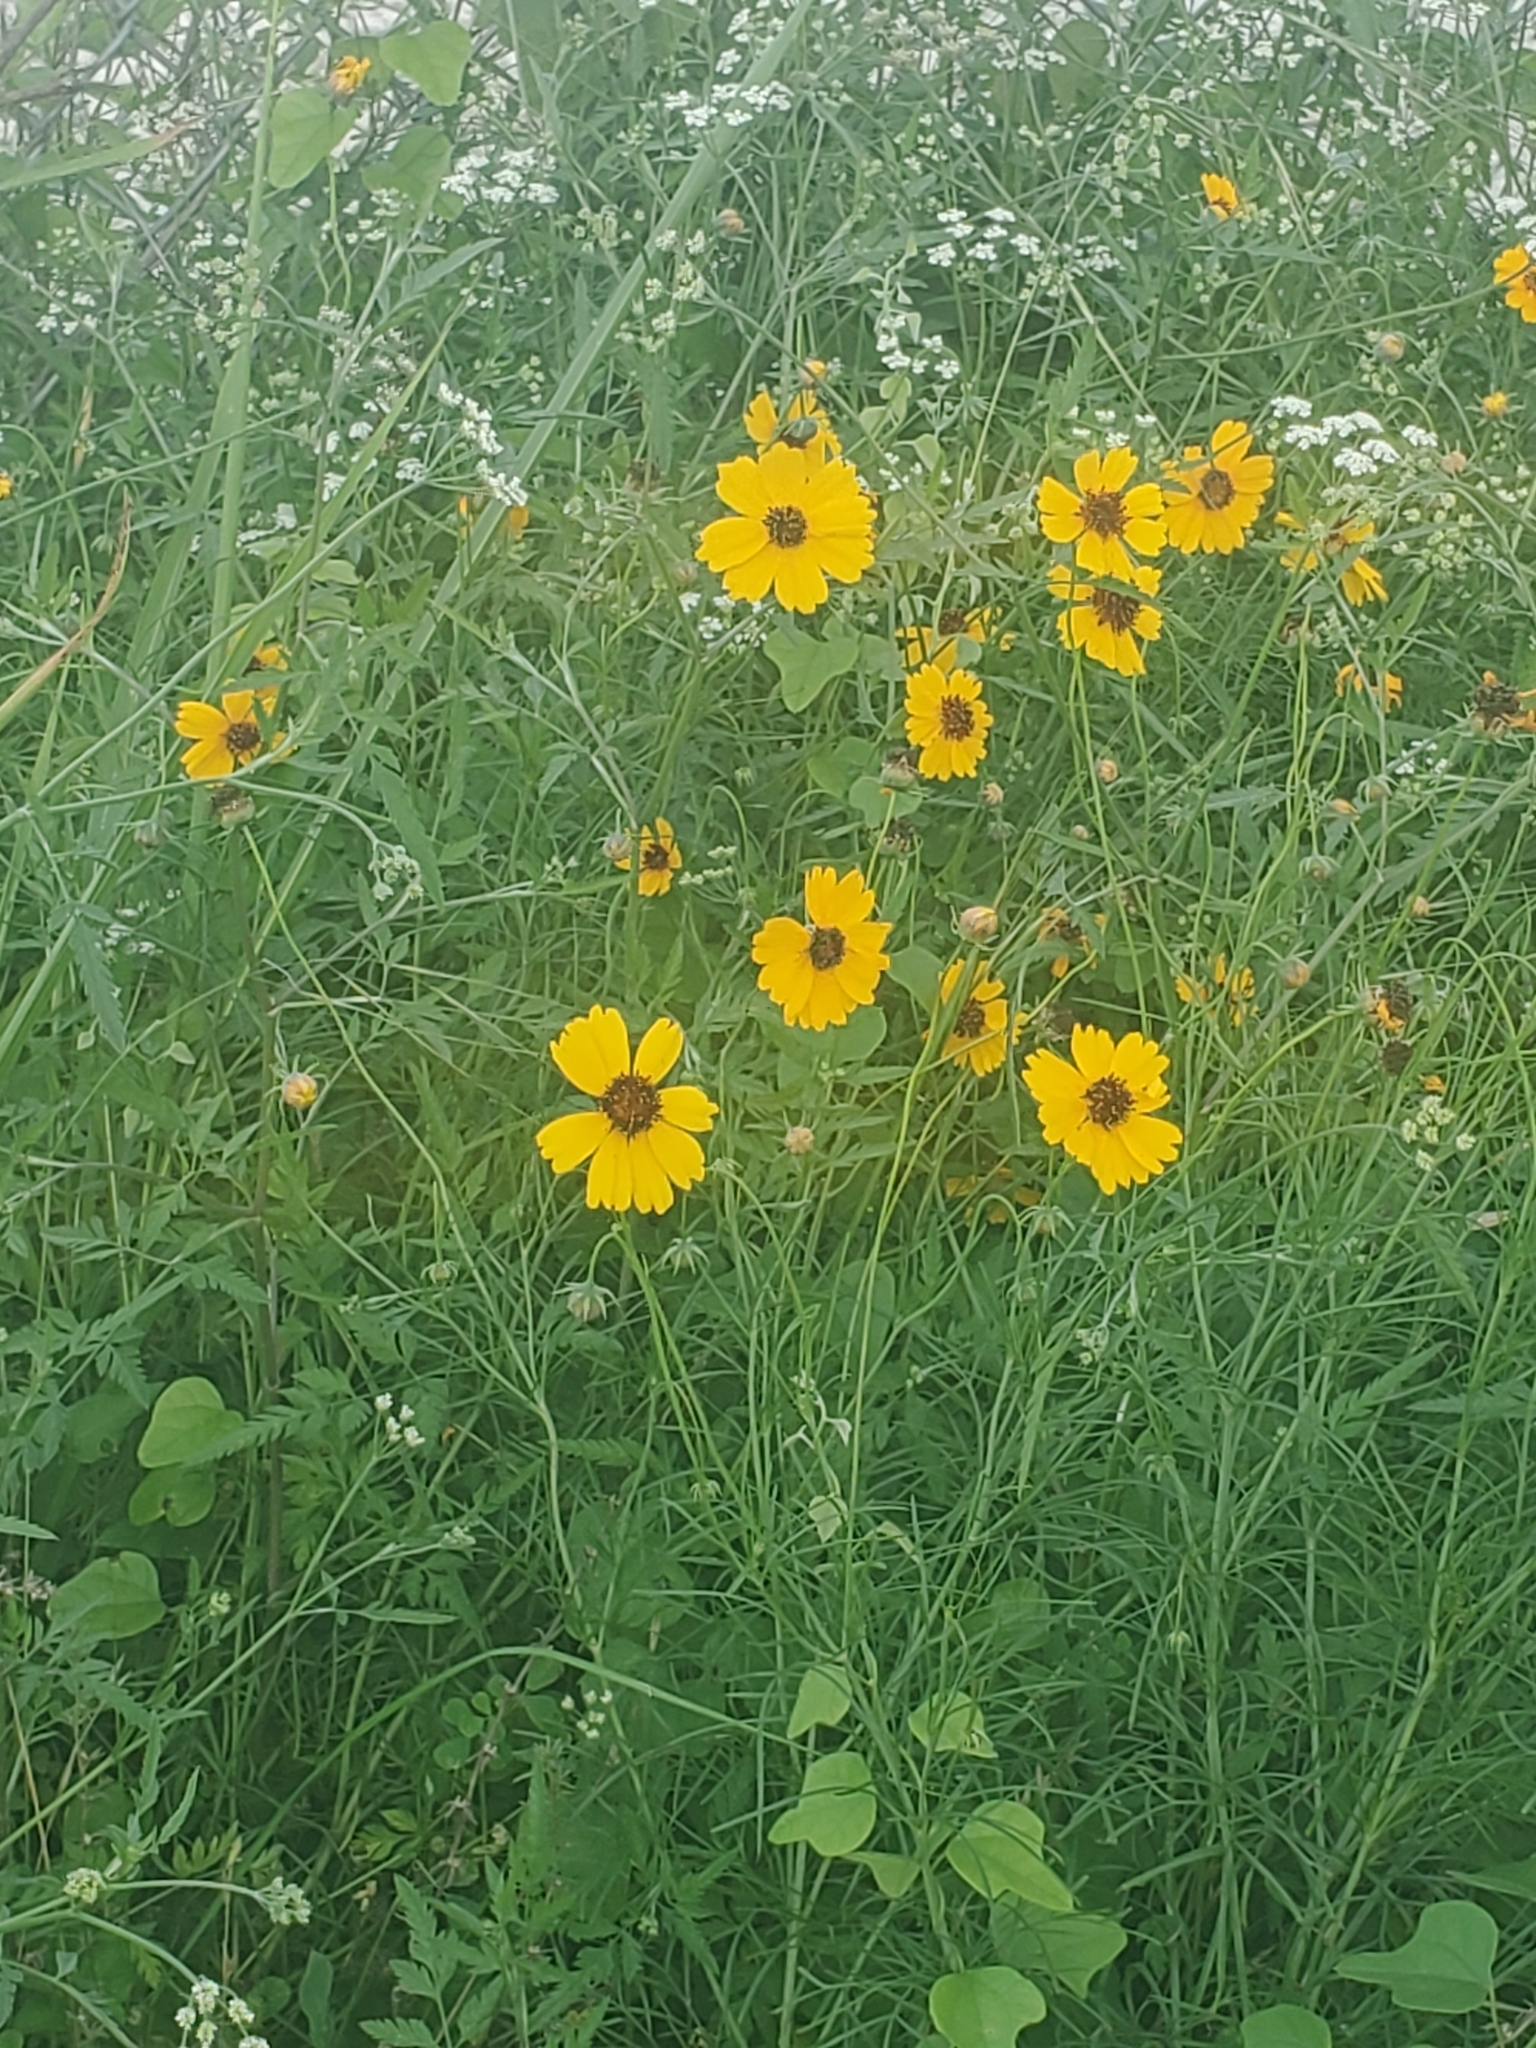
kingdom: Plantae
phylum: Tracheophyta
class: Magnoliopsida
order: Asterales
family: Asteraceae
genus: Thelesperma
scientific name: Thelesperma filifolium
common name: Stiff greenthread
